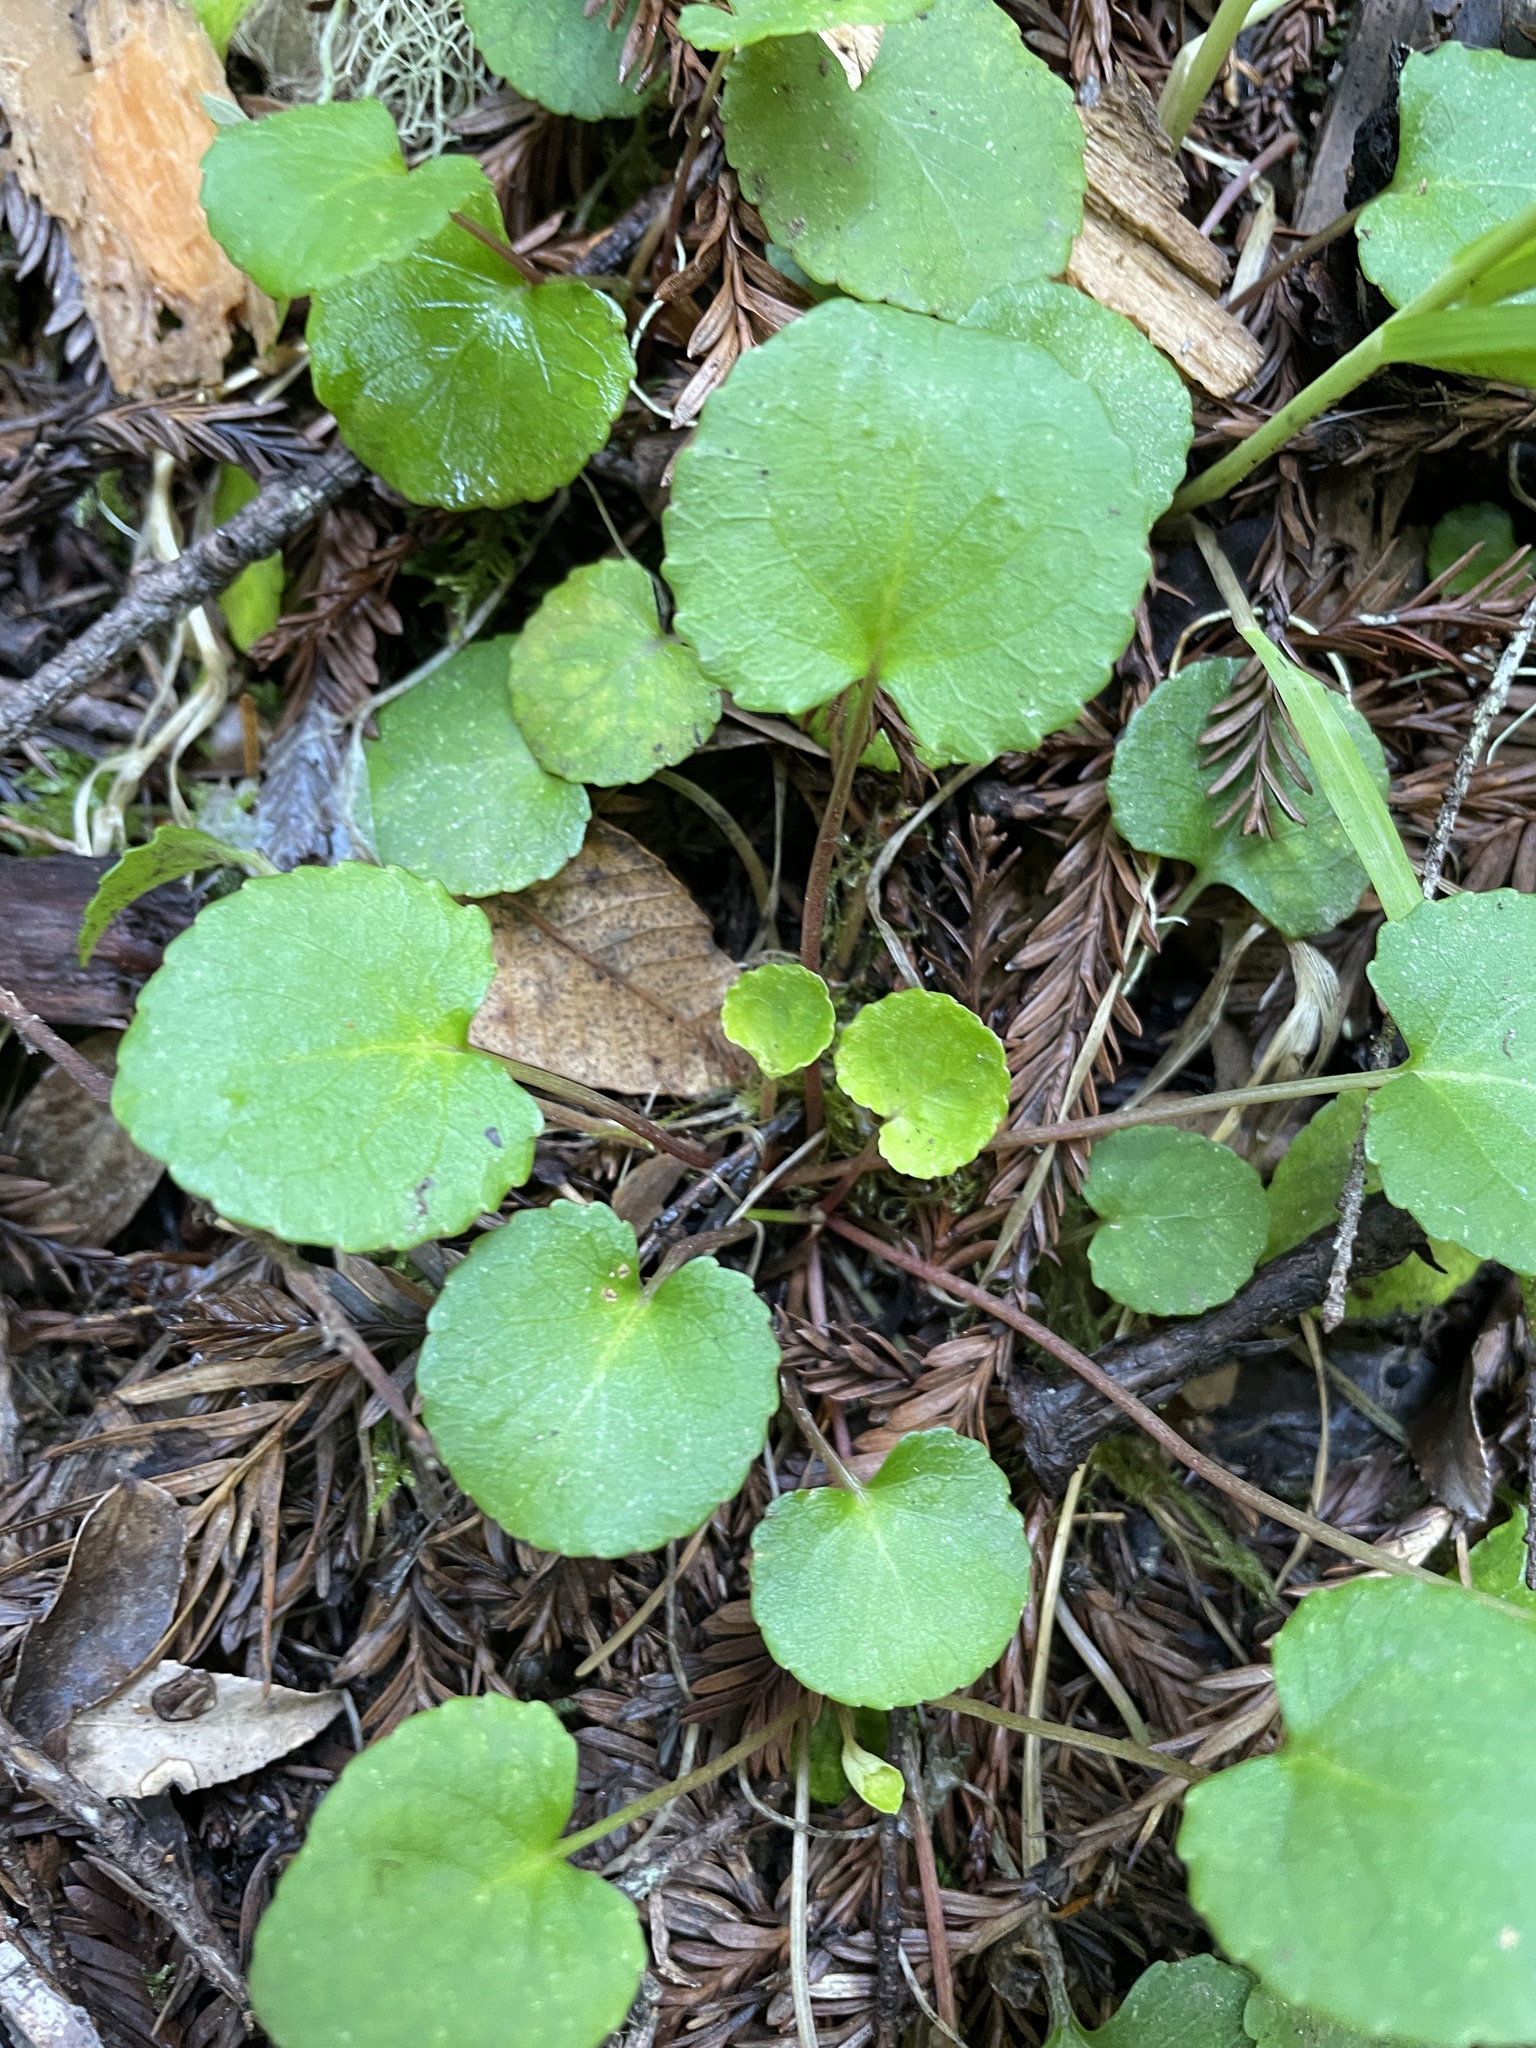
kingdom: Plantae
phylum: Tracheophyta
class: Magnoliopsida
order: Malpighiales
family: Violaceae
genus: Viola
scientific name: Viola sempervirens
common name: Evergreen violet
